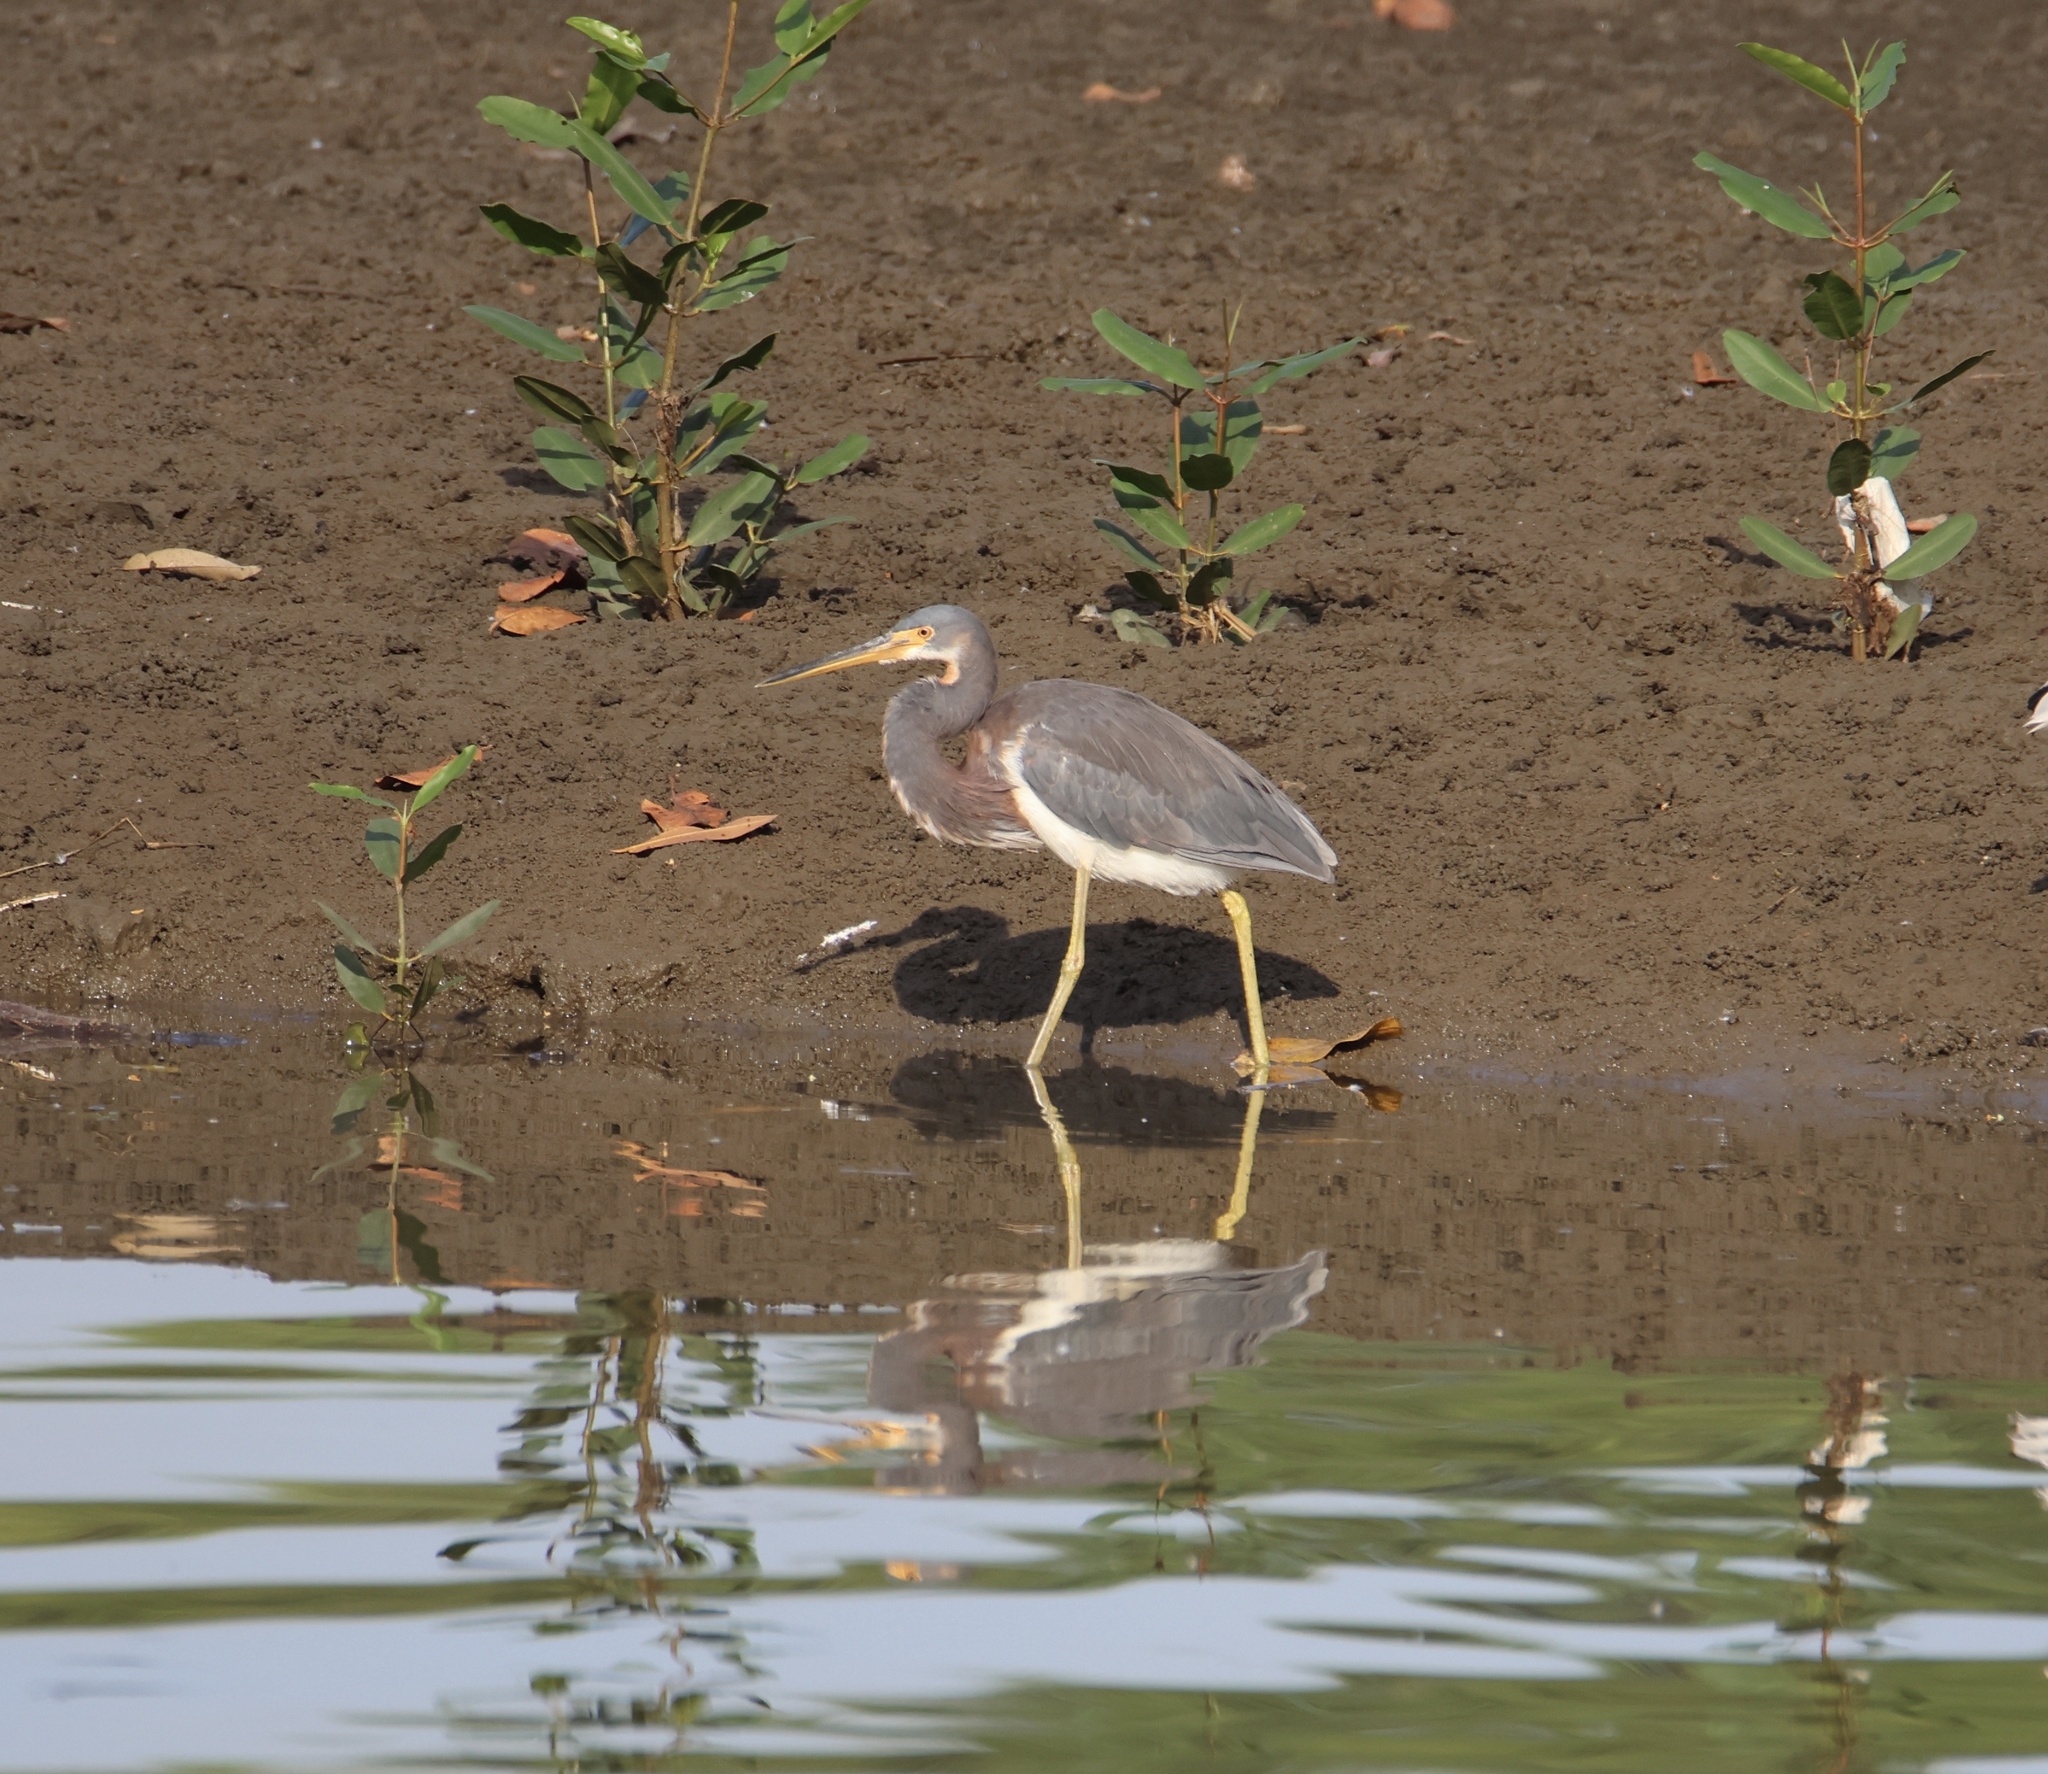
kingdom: Animalia
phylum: Chordata
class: Aves
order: Pelecaniformes
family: Ardeidae
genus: Egretta
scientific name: Egretta tricolor
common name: Tricolored heron
